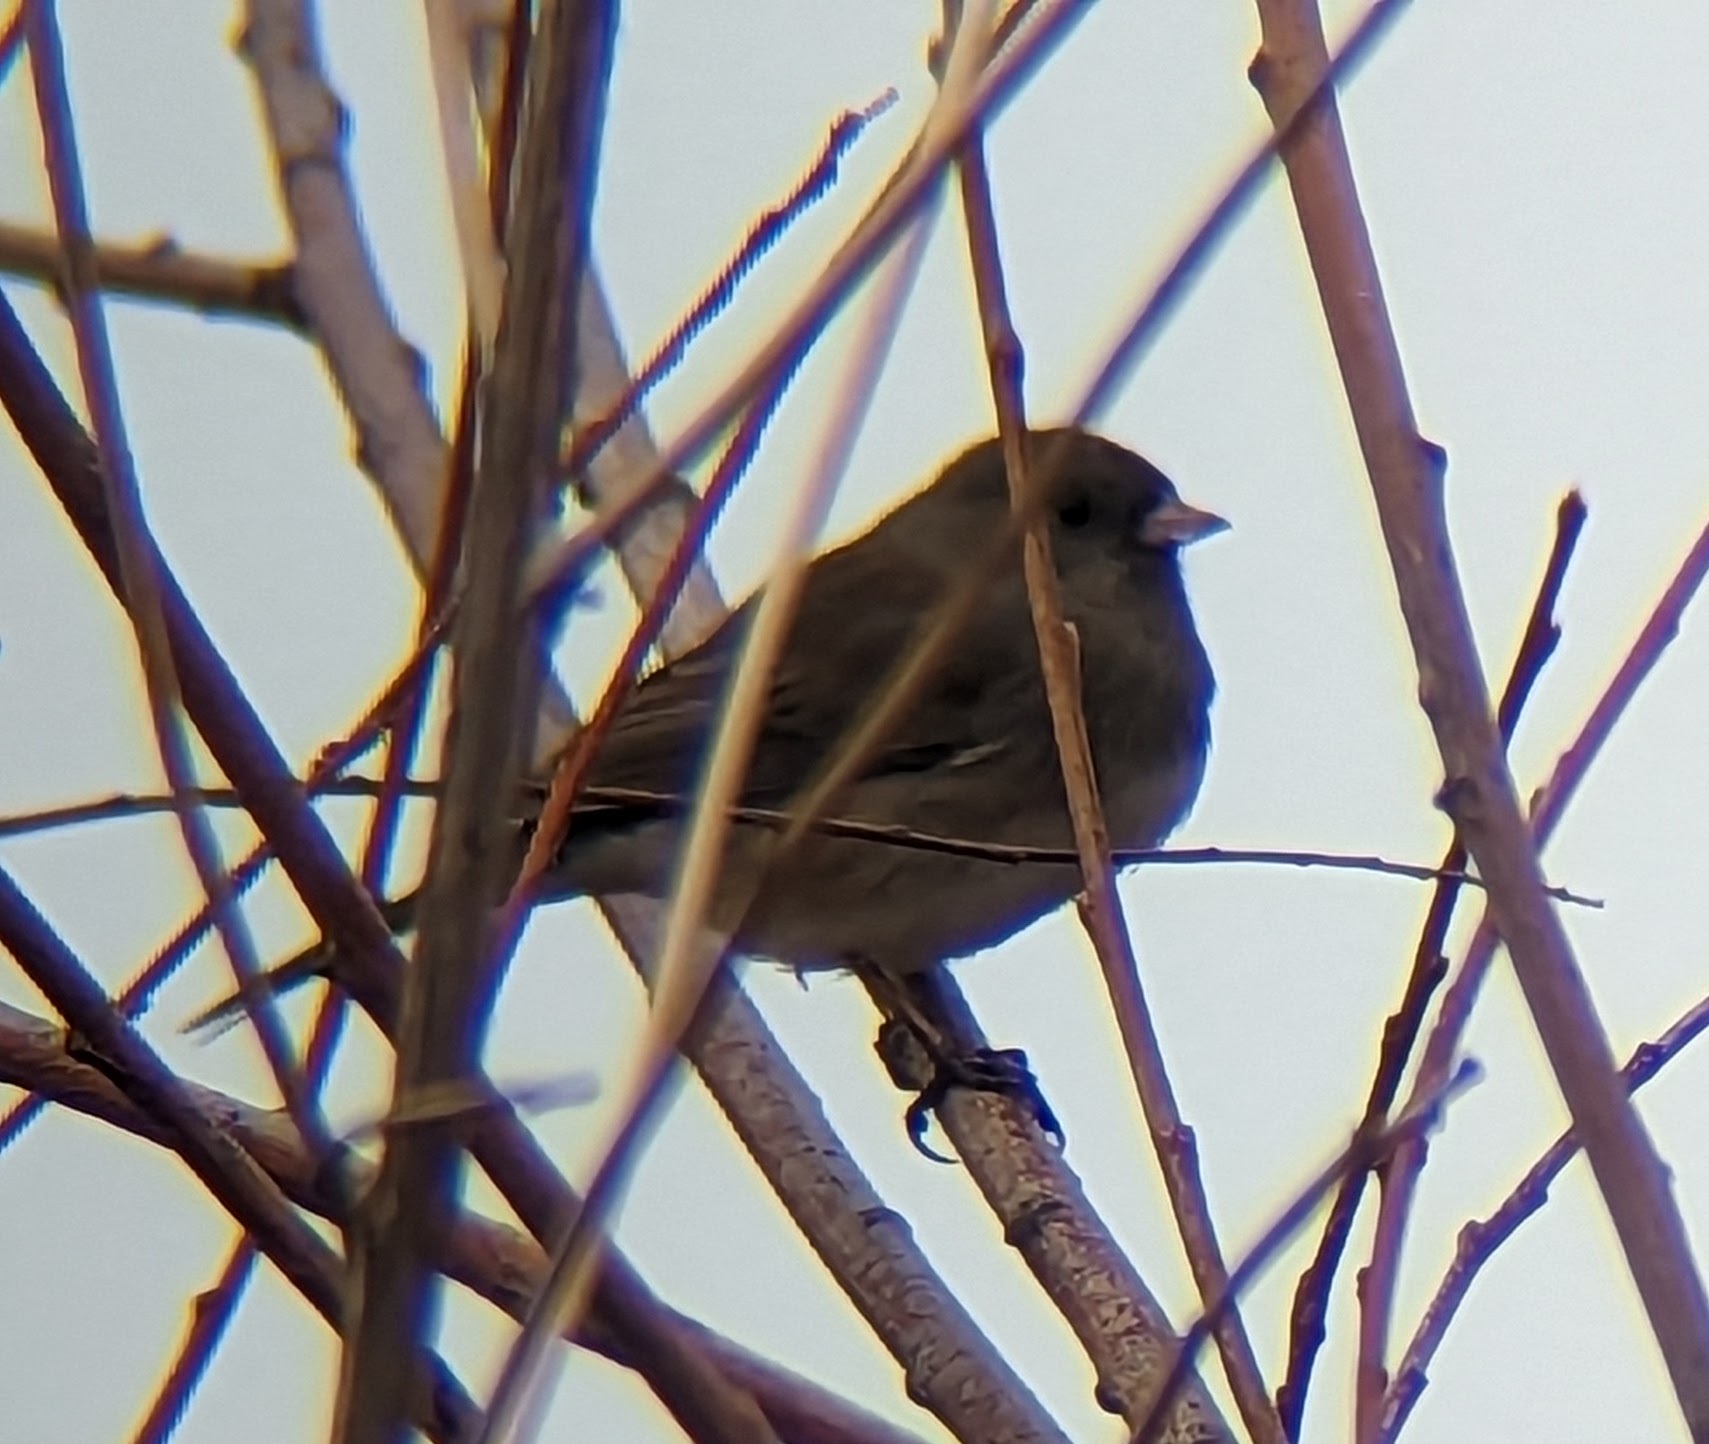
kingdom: Animalia
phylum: Chordata
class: Aves
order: Passeriformes
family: Passerellidae
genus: Junco
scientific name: Junco hyemalis
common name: Dark-eyed junco
